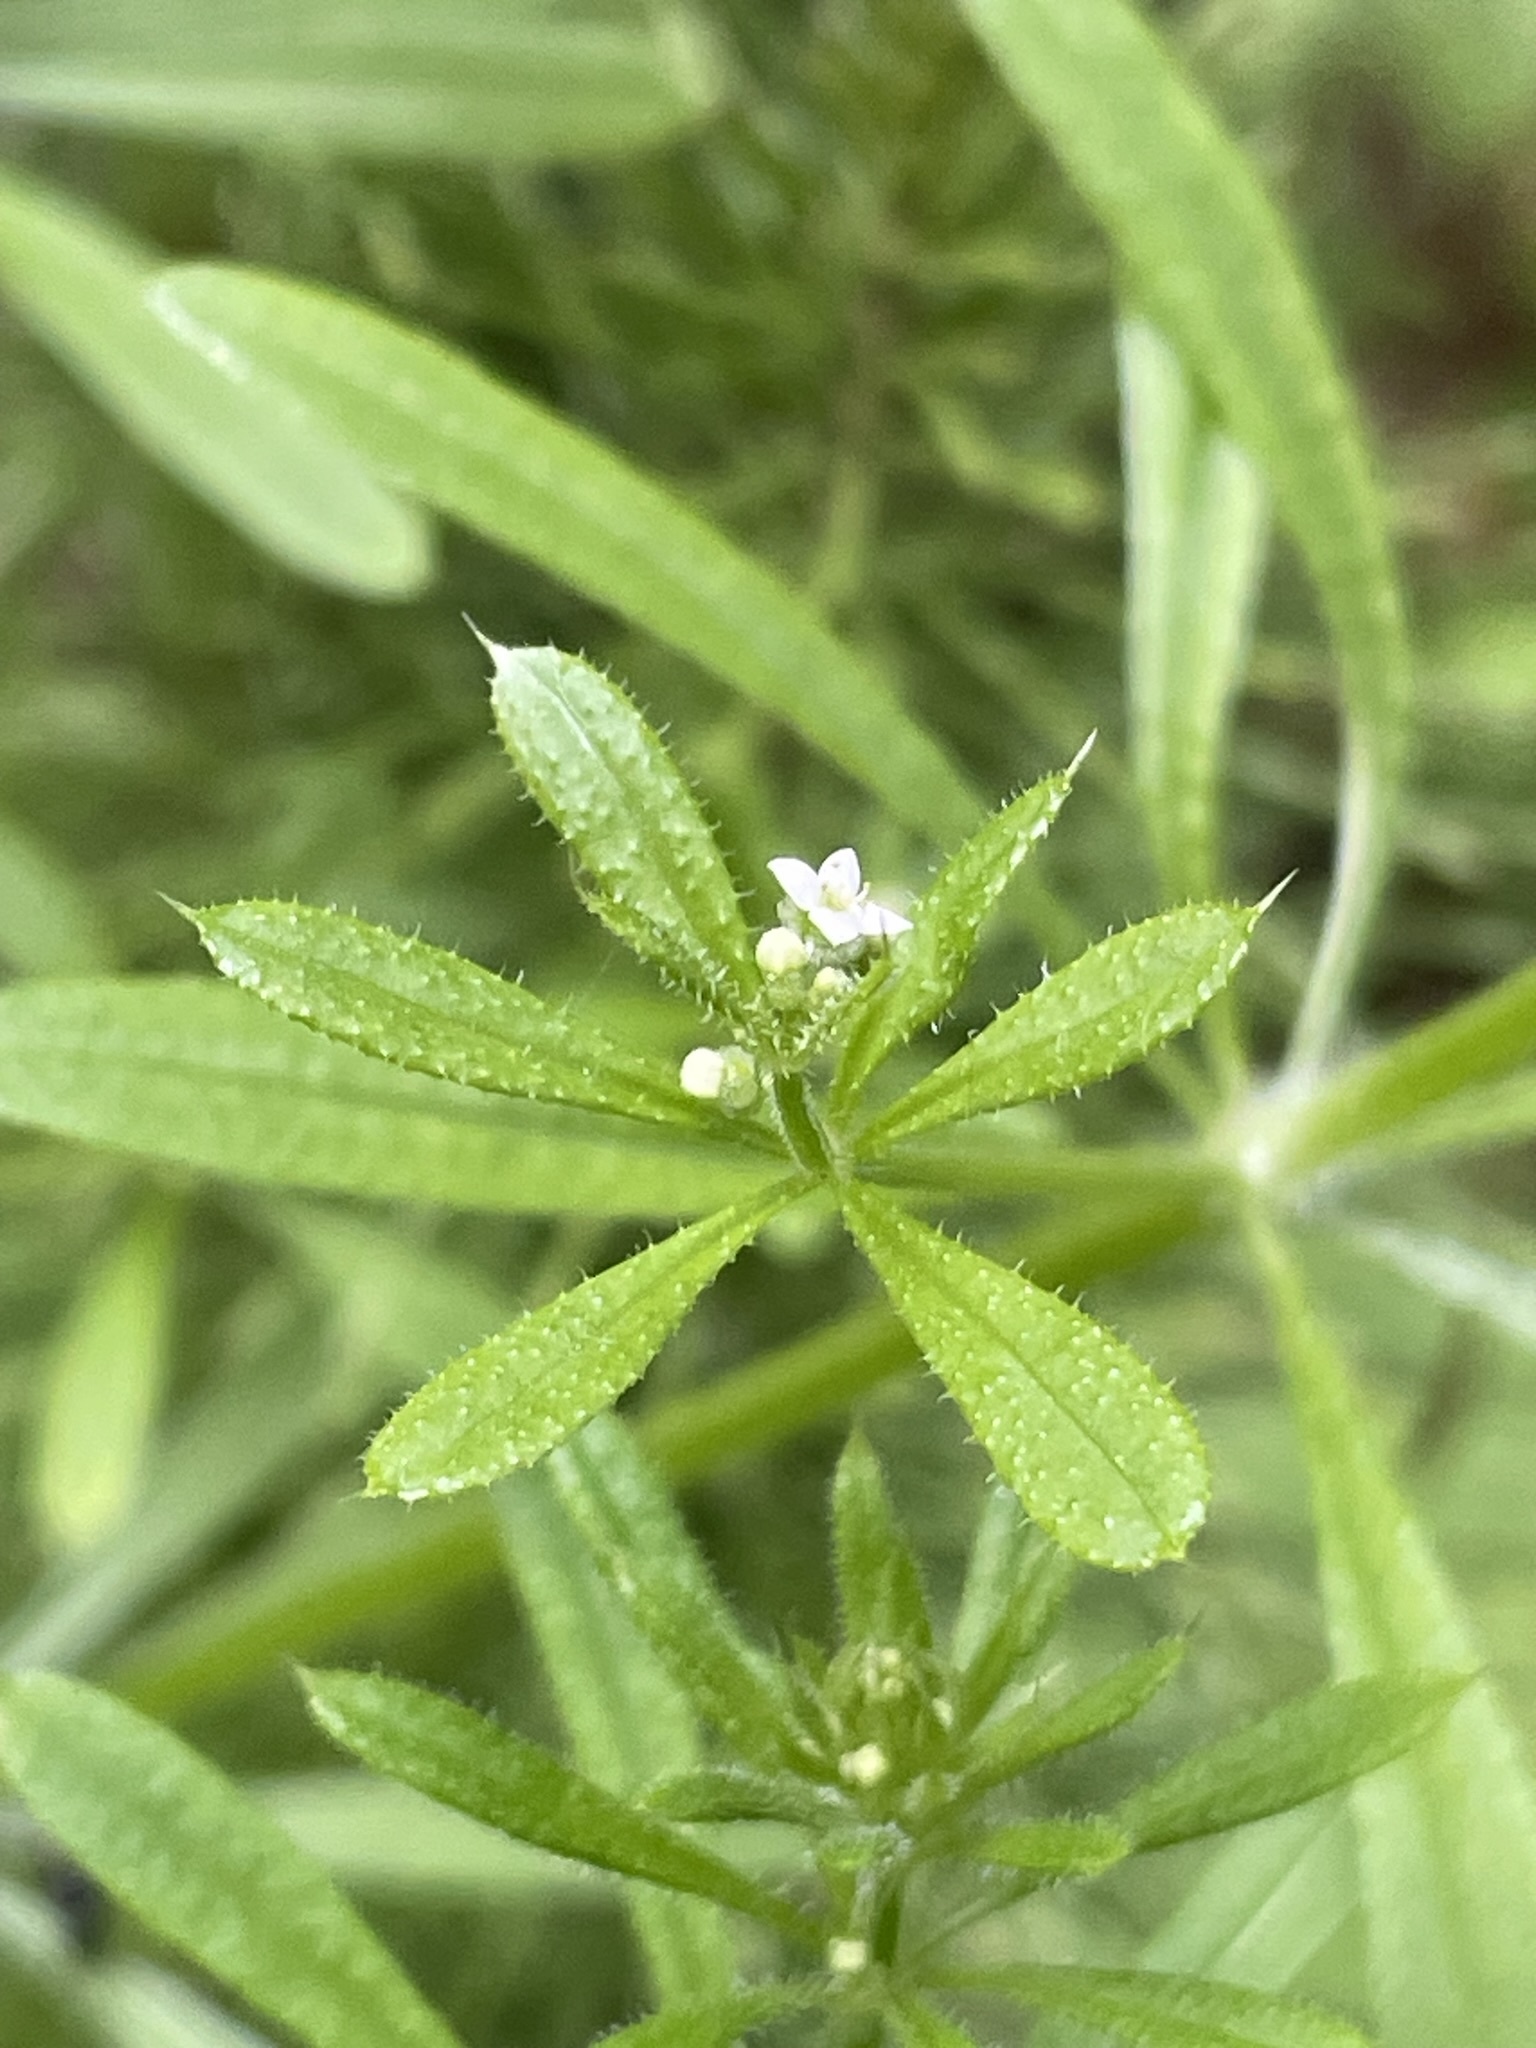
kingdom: Plantae
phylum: Tracheophyta
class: Magnoliopsida
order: Gentianales
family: Rubiaceae
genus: Galium
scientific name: Galium aparine
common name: Cleavers
